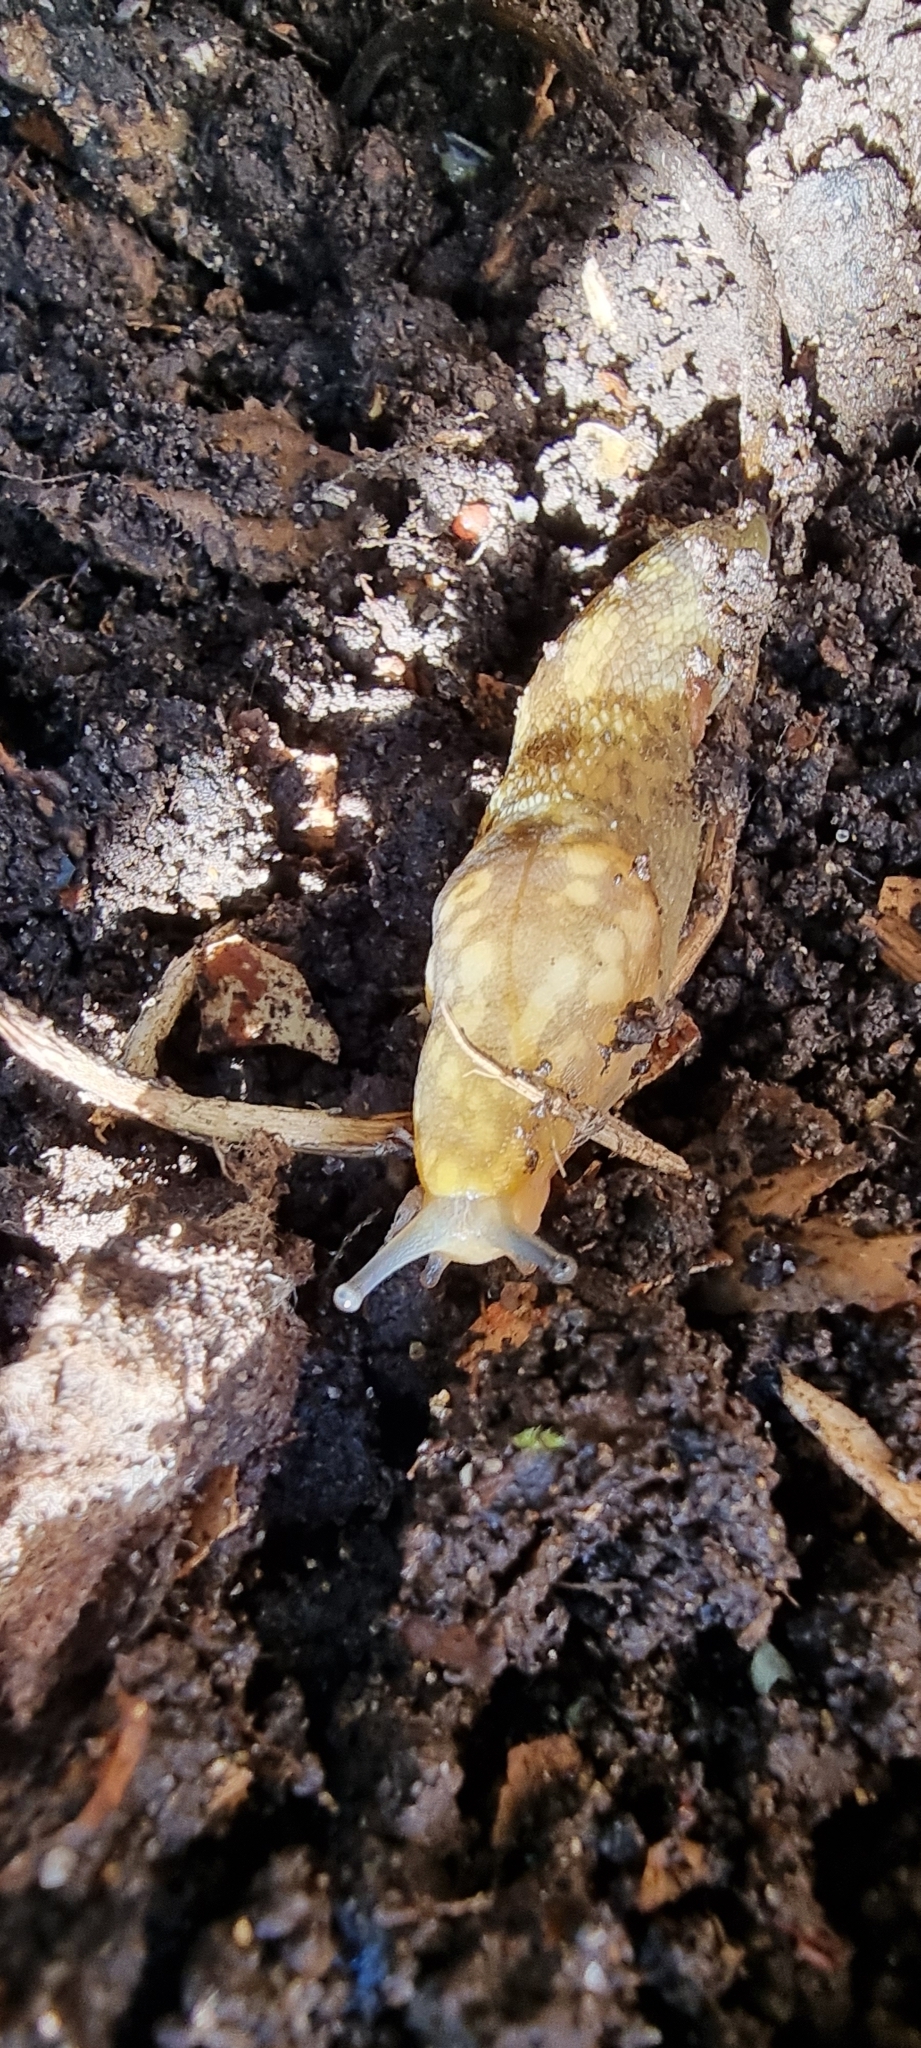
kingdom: Animalia
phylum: Mollusca
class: Gastropoda
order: Stylommatophora
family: Limacidae
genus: Limacus
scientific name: Limacus maculatus
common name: Irish yellow slug
